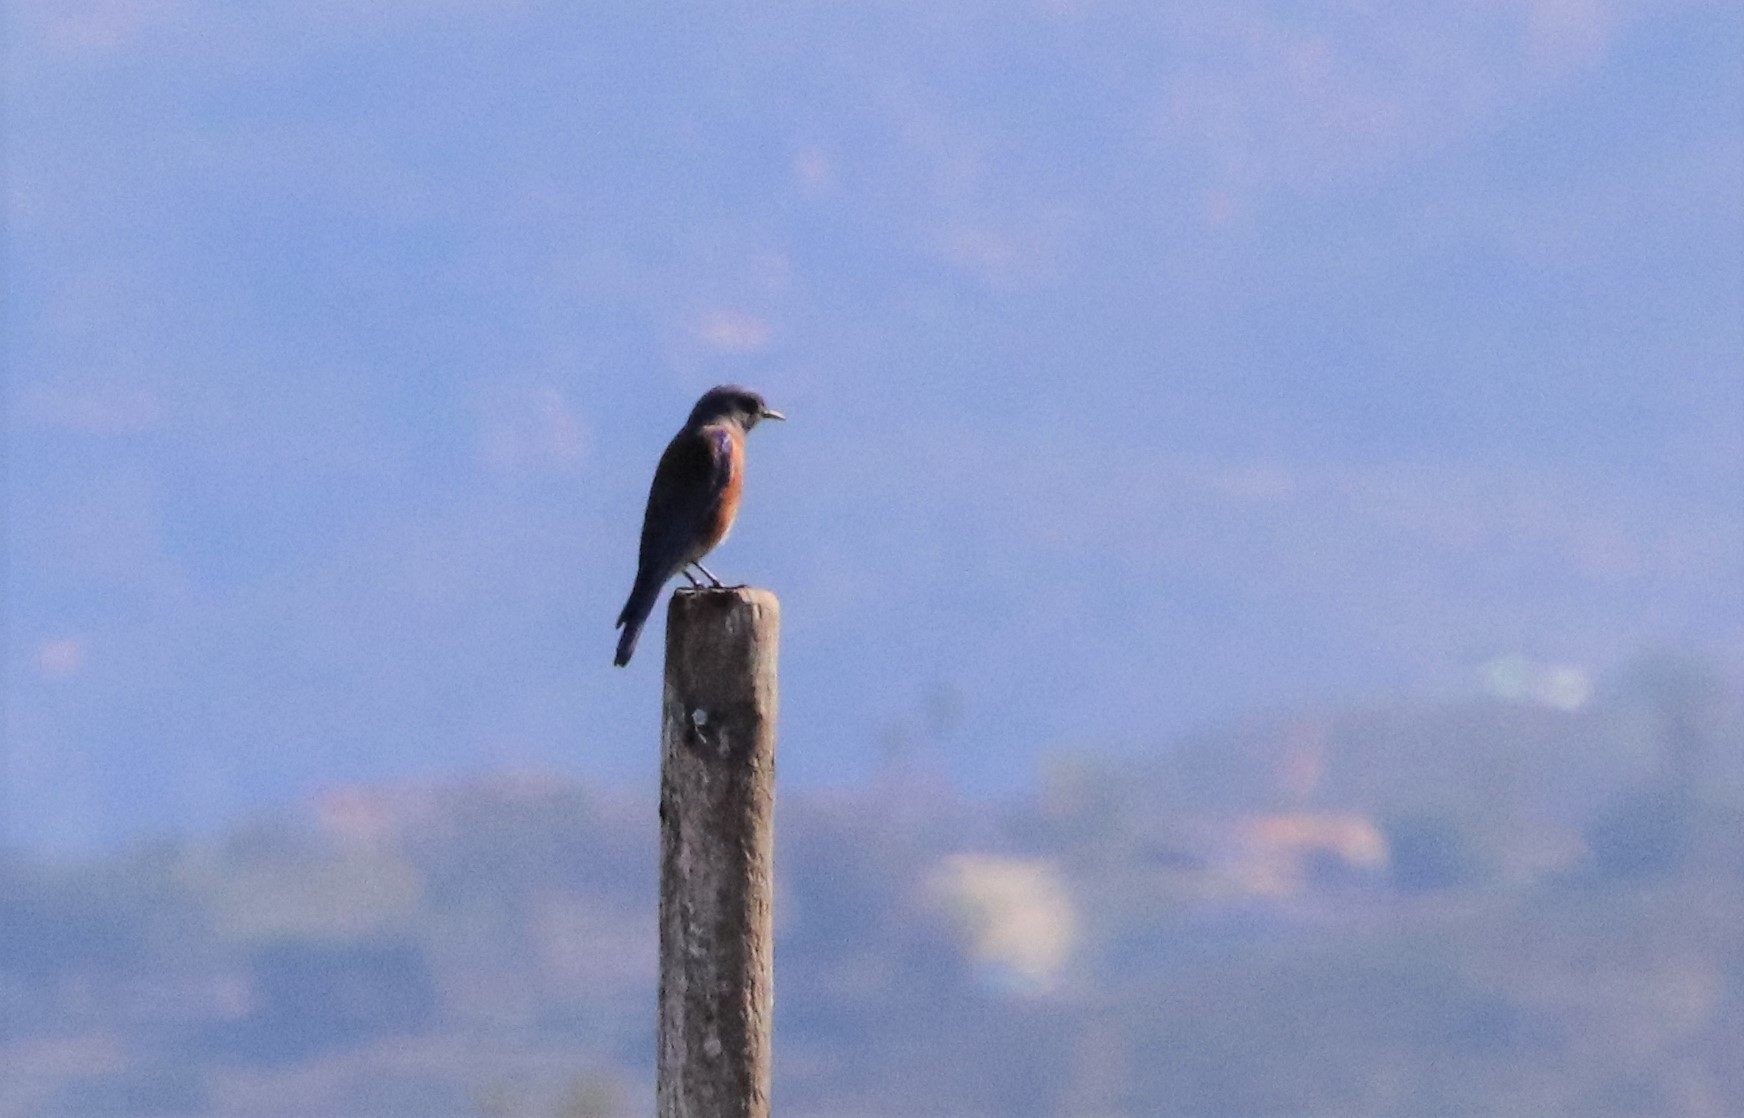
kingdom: Animalia
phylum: Chordata
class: Aves
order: Passeriformes
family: Turdidae
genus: Sialia
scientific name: Sialia mexicana
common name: Western bluebird
